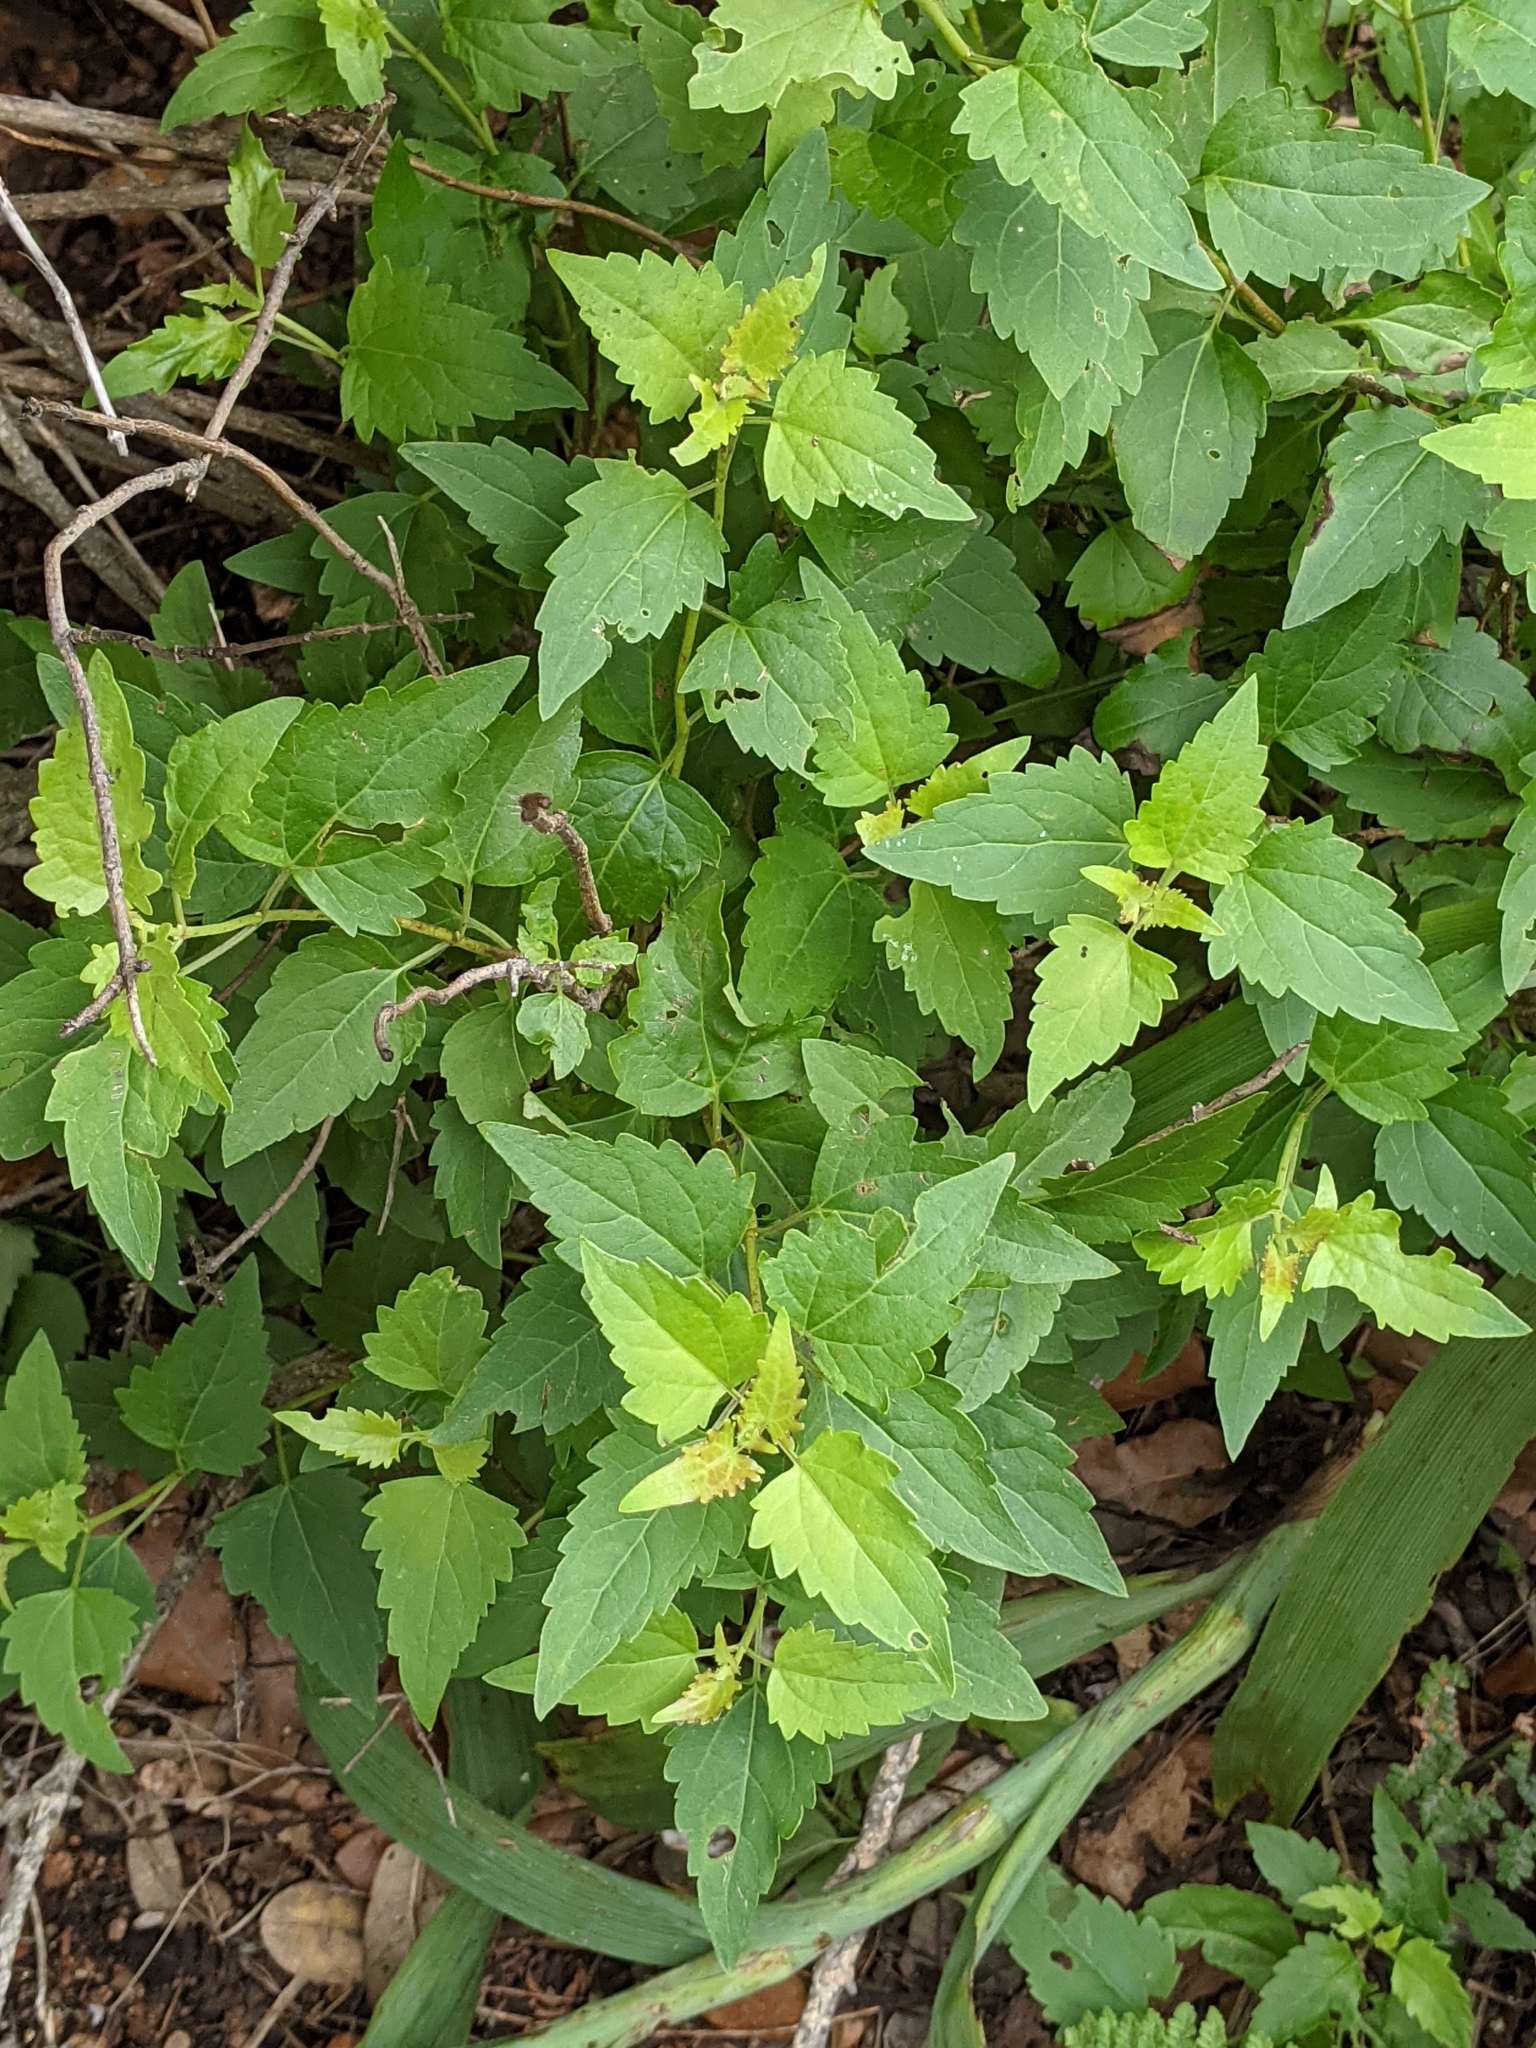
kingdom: Plantae
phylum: Tracheophyta
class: Magnoliopsida
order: Asterales
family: Asteraceae
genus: Ageratina
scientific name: Ageratina havanensis
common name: Havana snakeroot
